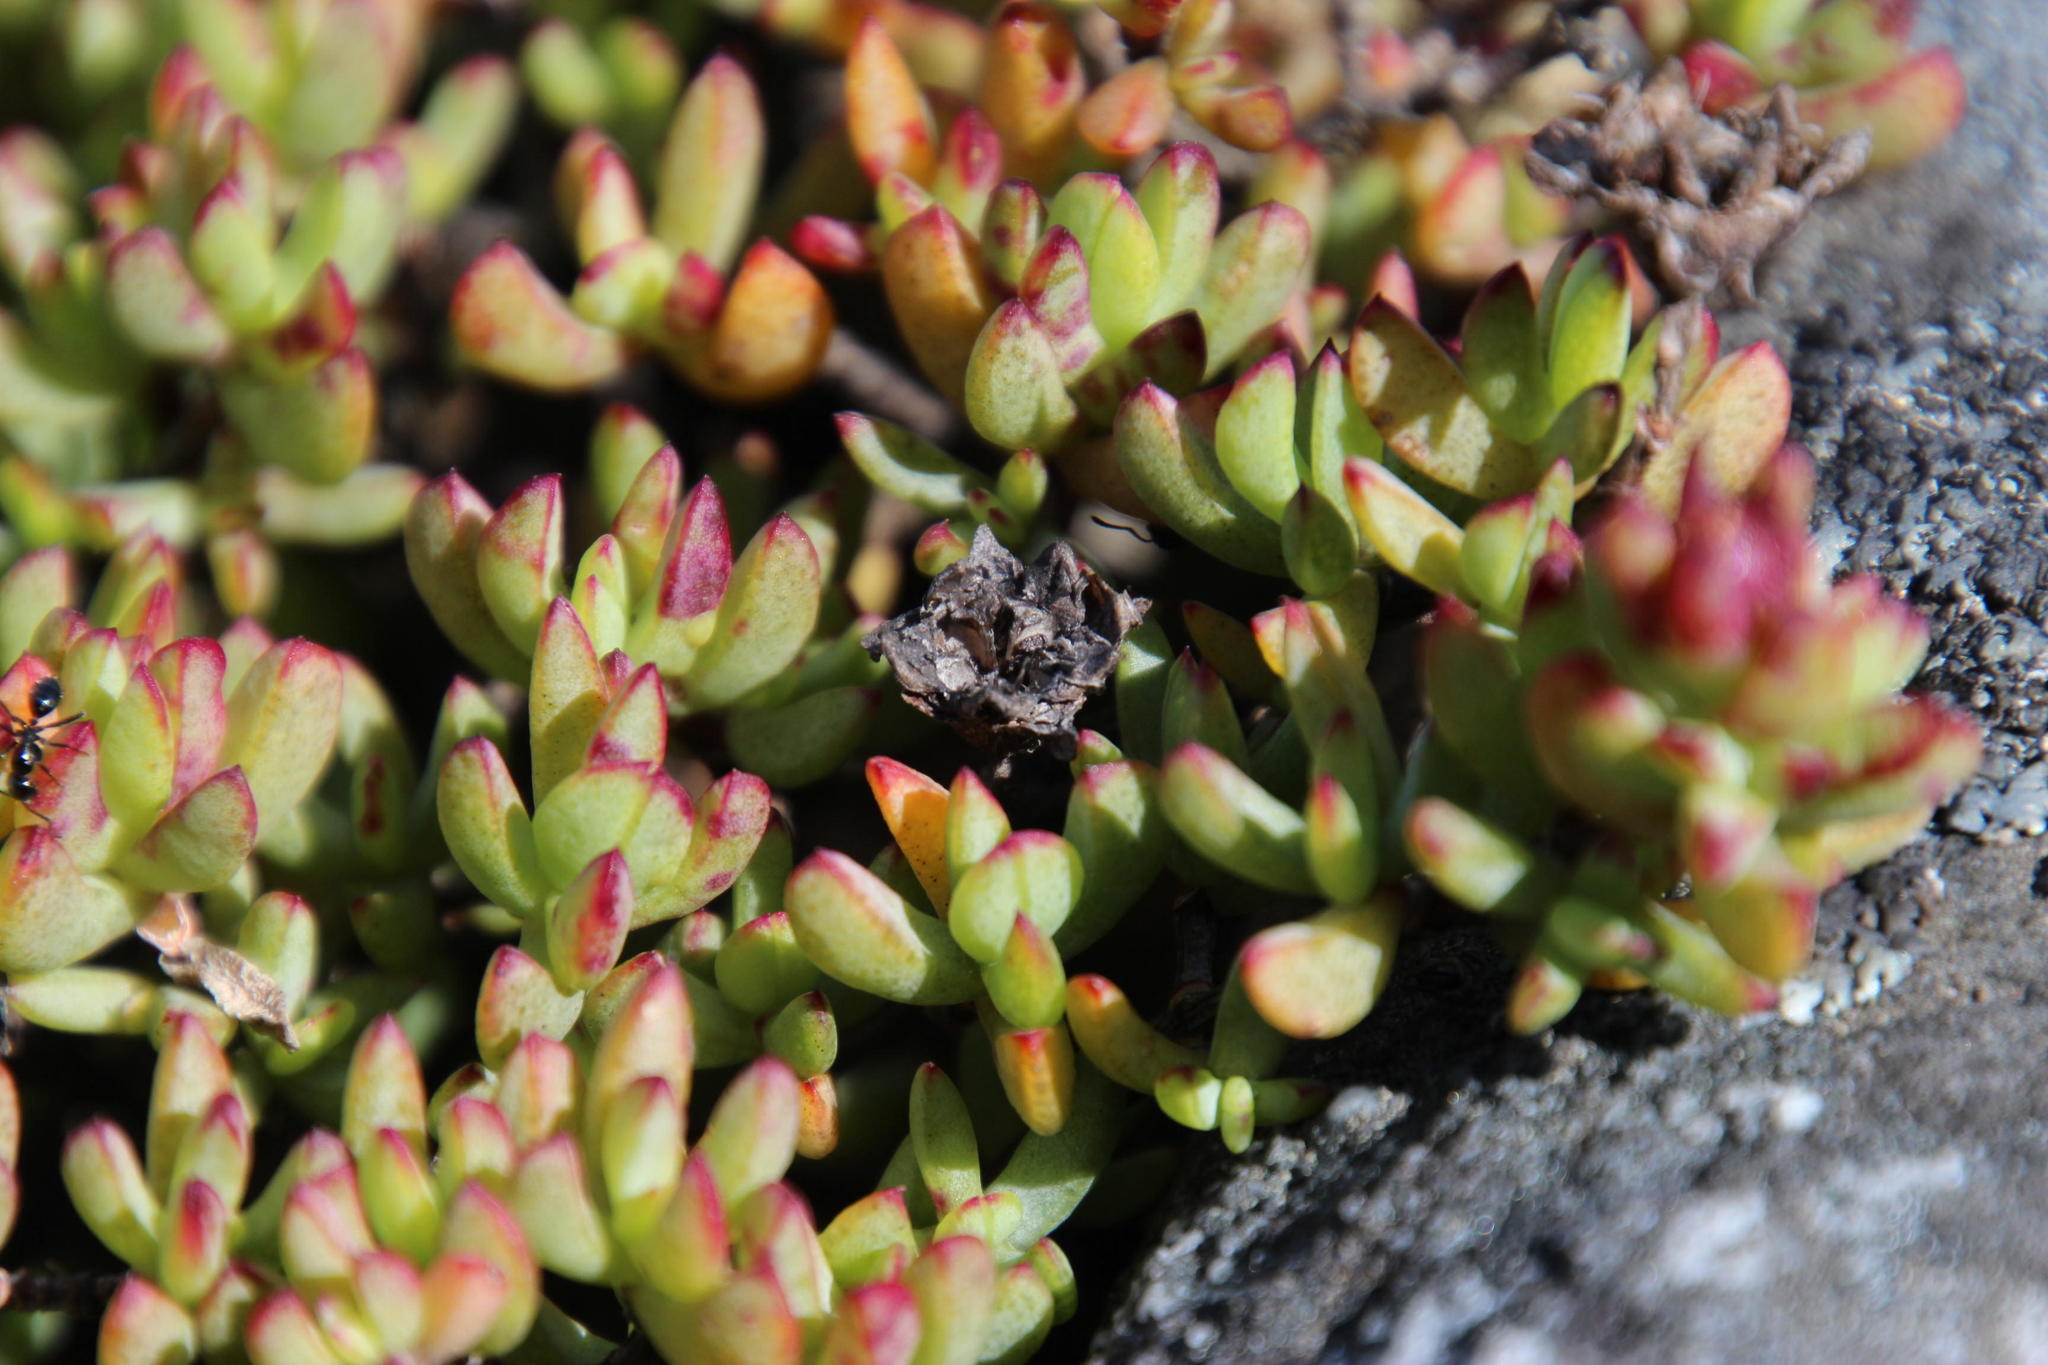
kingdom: Plantae
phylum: Tracheophyta
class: Magnoliopsida
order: Caryophyllales
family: Aizoaceae
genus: Oscularia
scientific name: Oscularia falciformis
